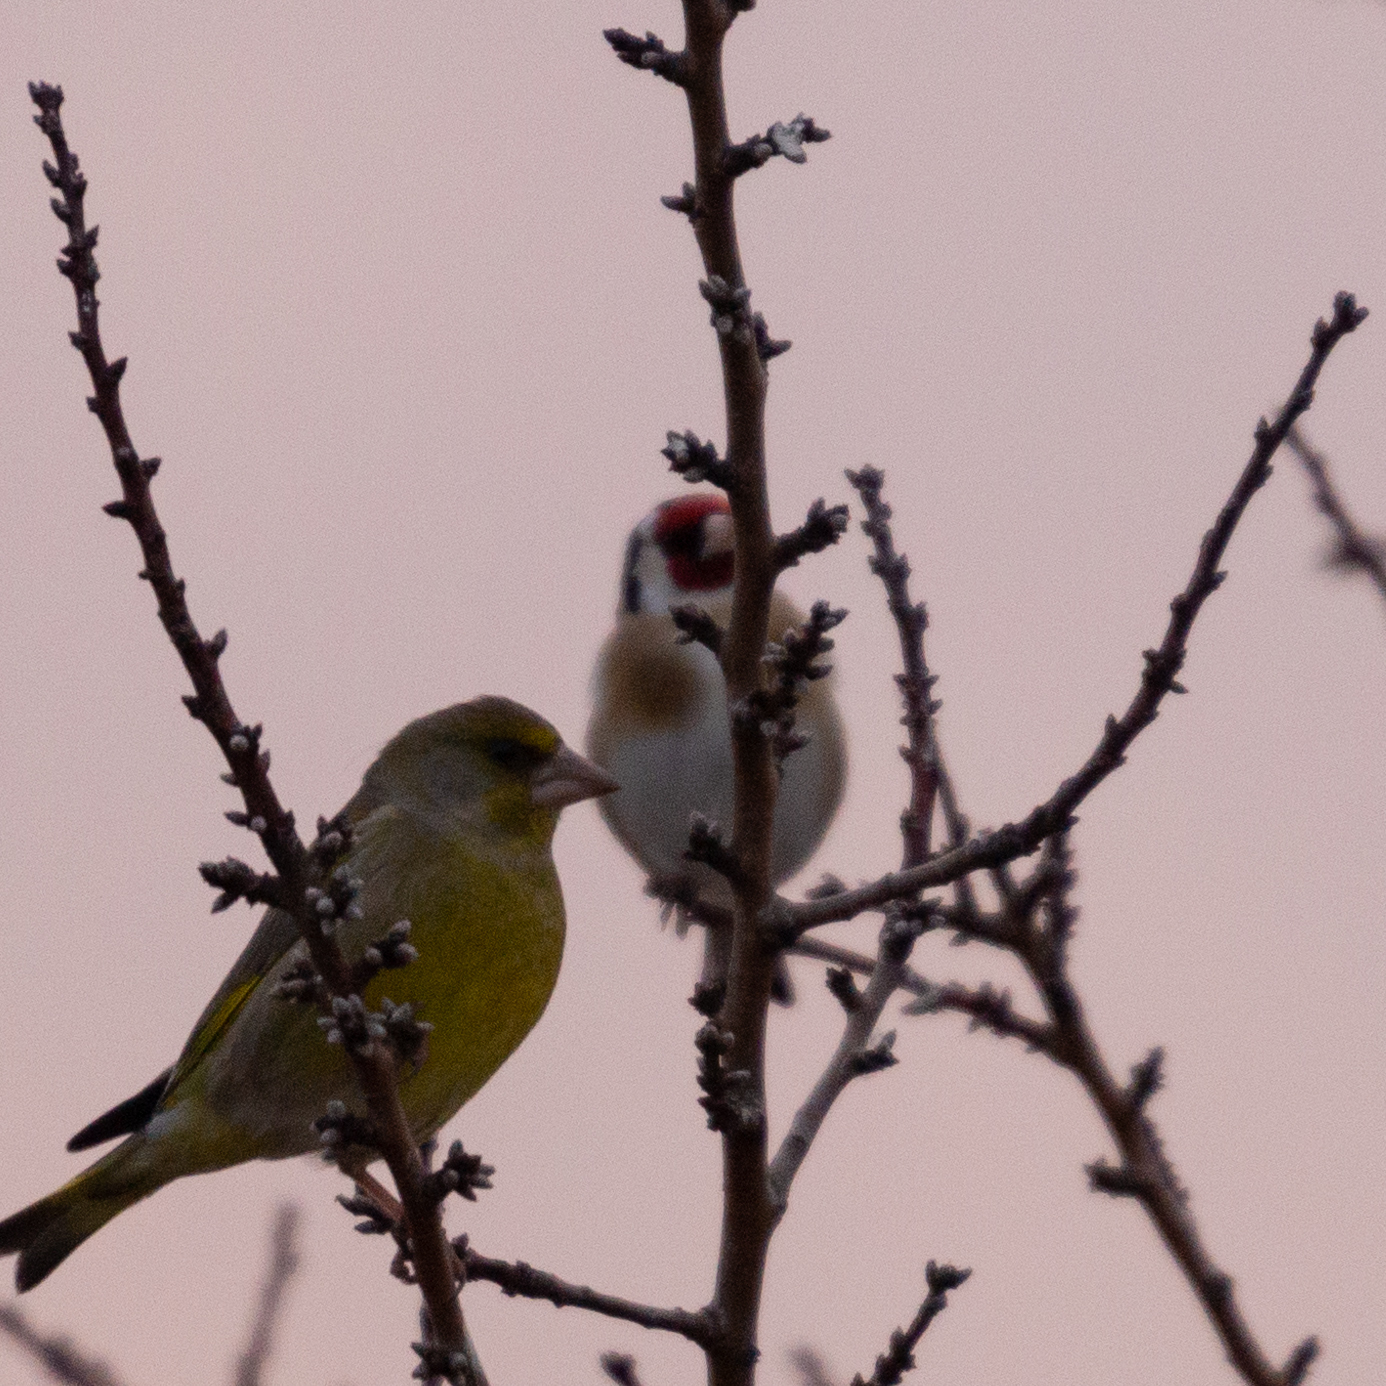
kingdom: Animalia
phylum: Chordata
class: Aves
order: Passeriformes
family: Fringillidae
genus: Carduelis
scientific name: Carduelis carduelis
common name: European goldfinch
